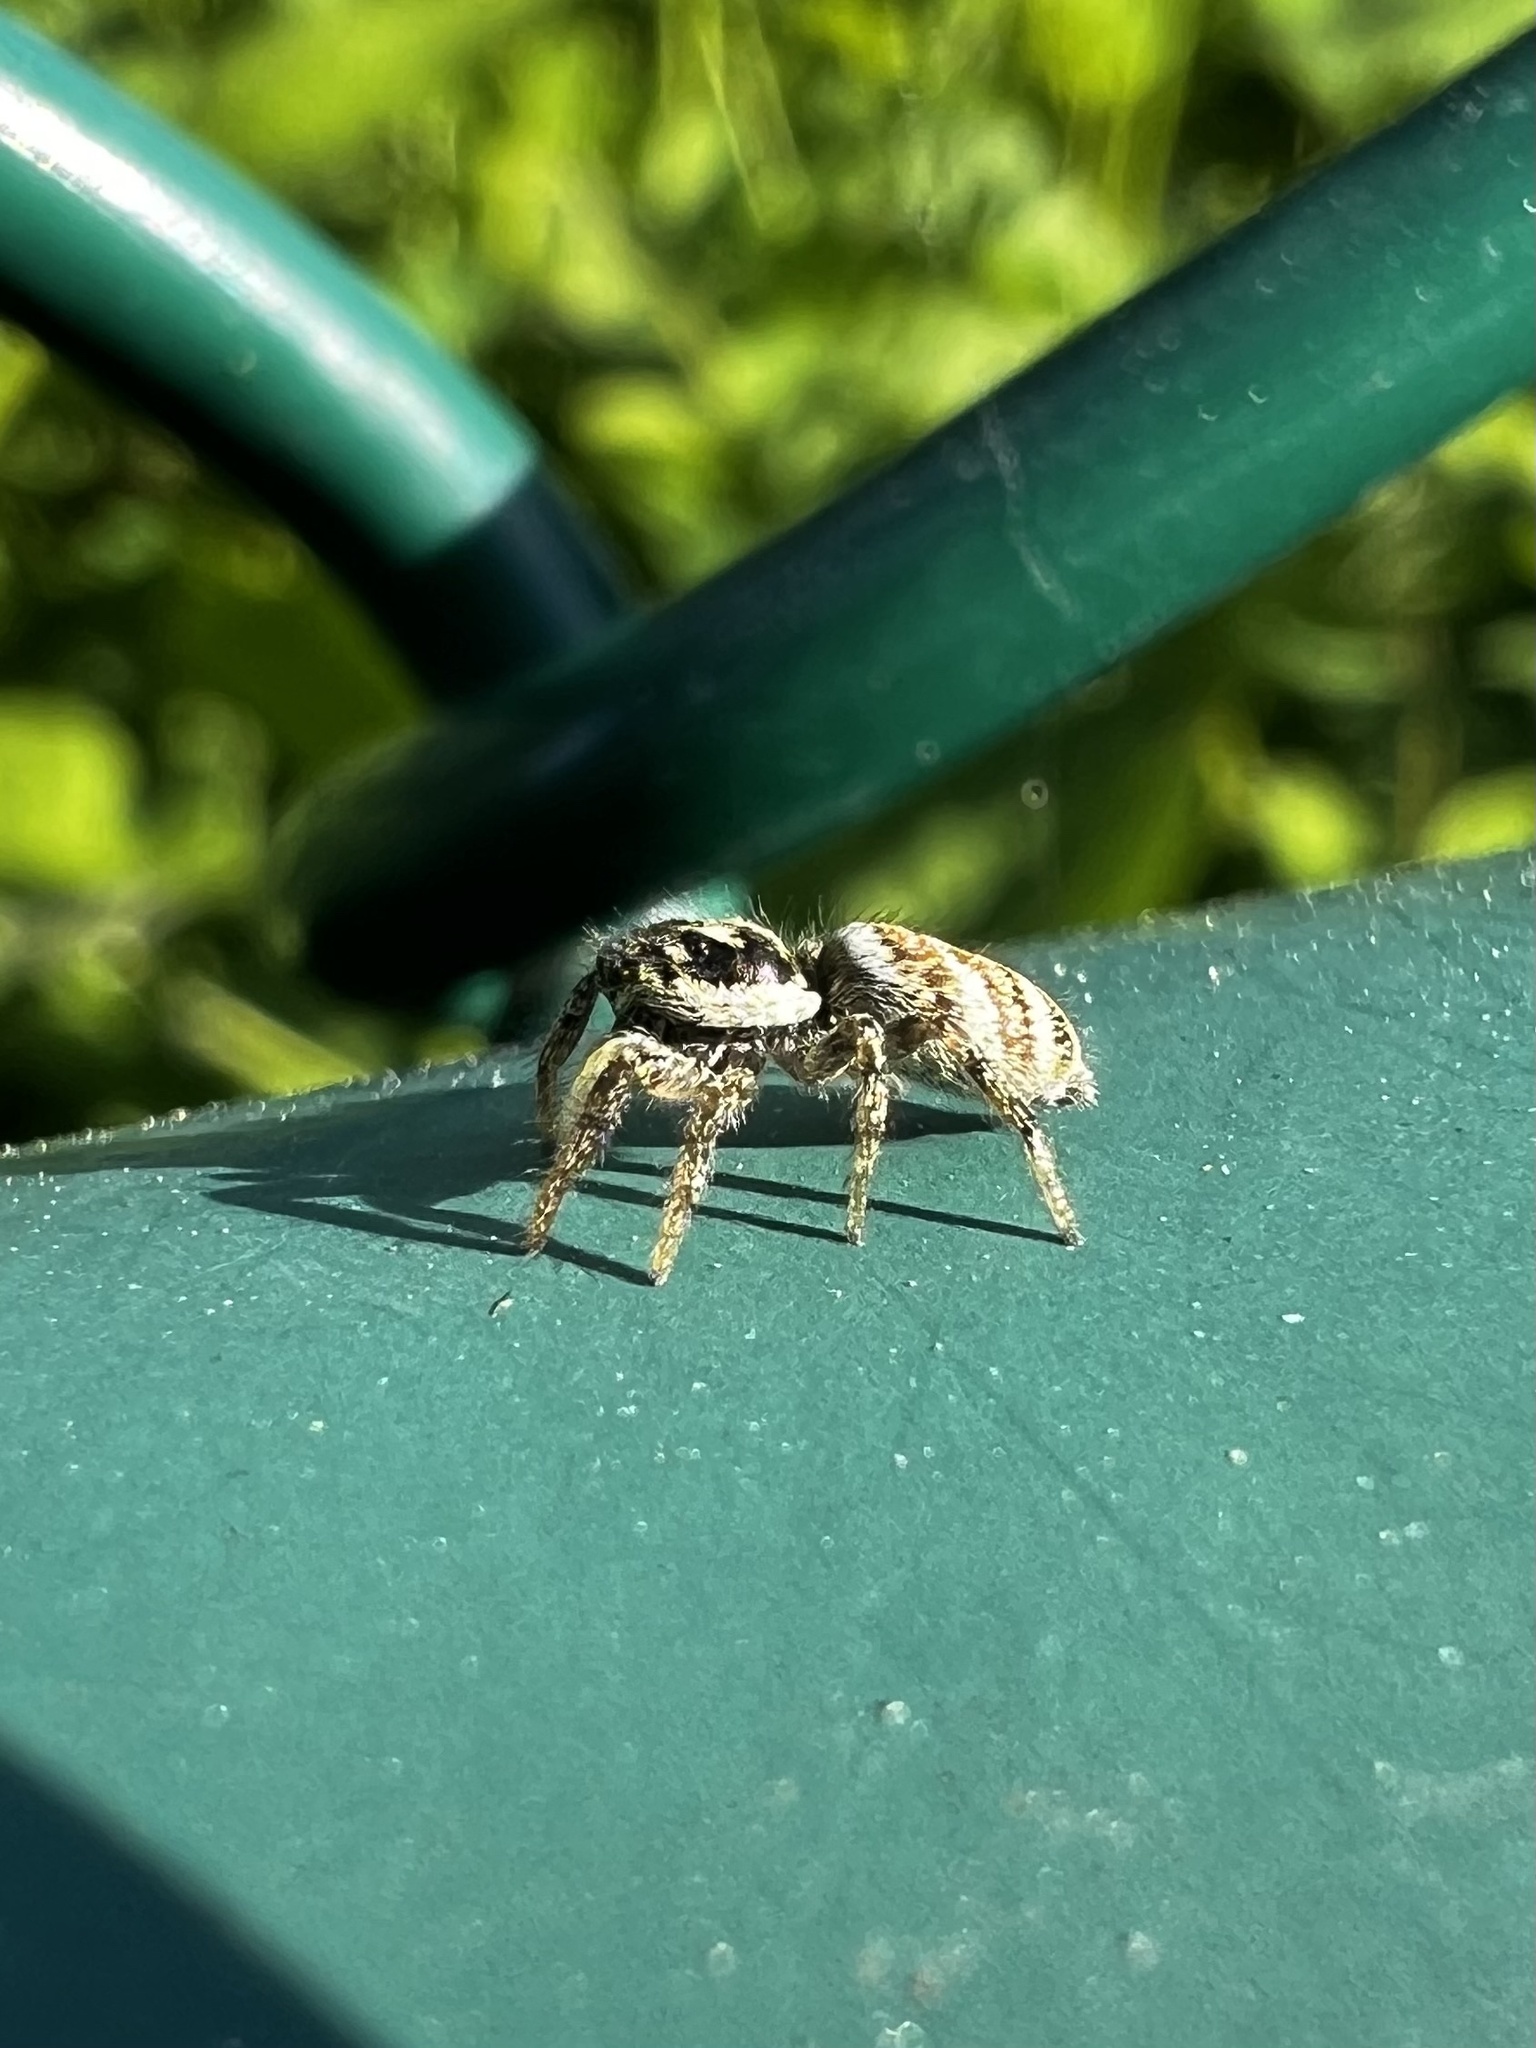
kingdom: Animalia
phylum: Arthropoda
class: Arachnida
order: Araneae
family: Salticidae
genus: Salticus
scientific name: Salticus scenicus
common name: Zebra jumper
